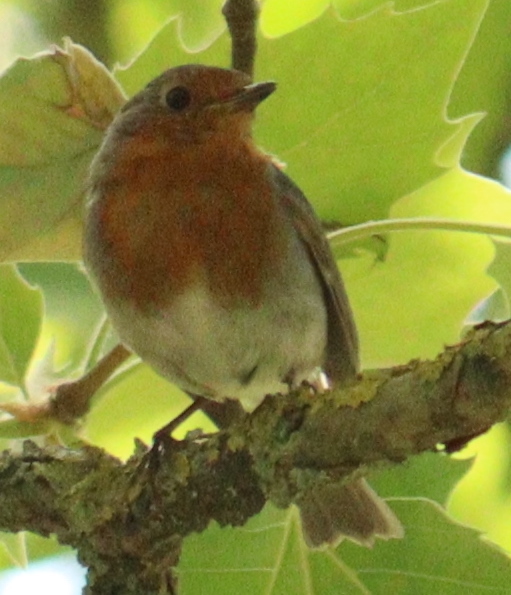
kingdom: Animalia
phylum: Chordata
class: Aves
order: Passeriformes
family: Muscicapidae
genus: Erithacus
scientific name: Erithacus rubecula
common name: European robin
